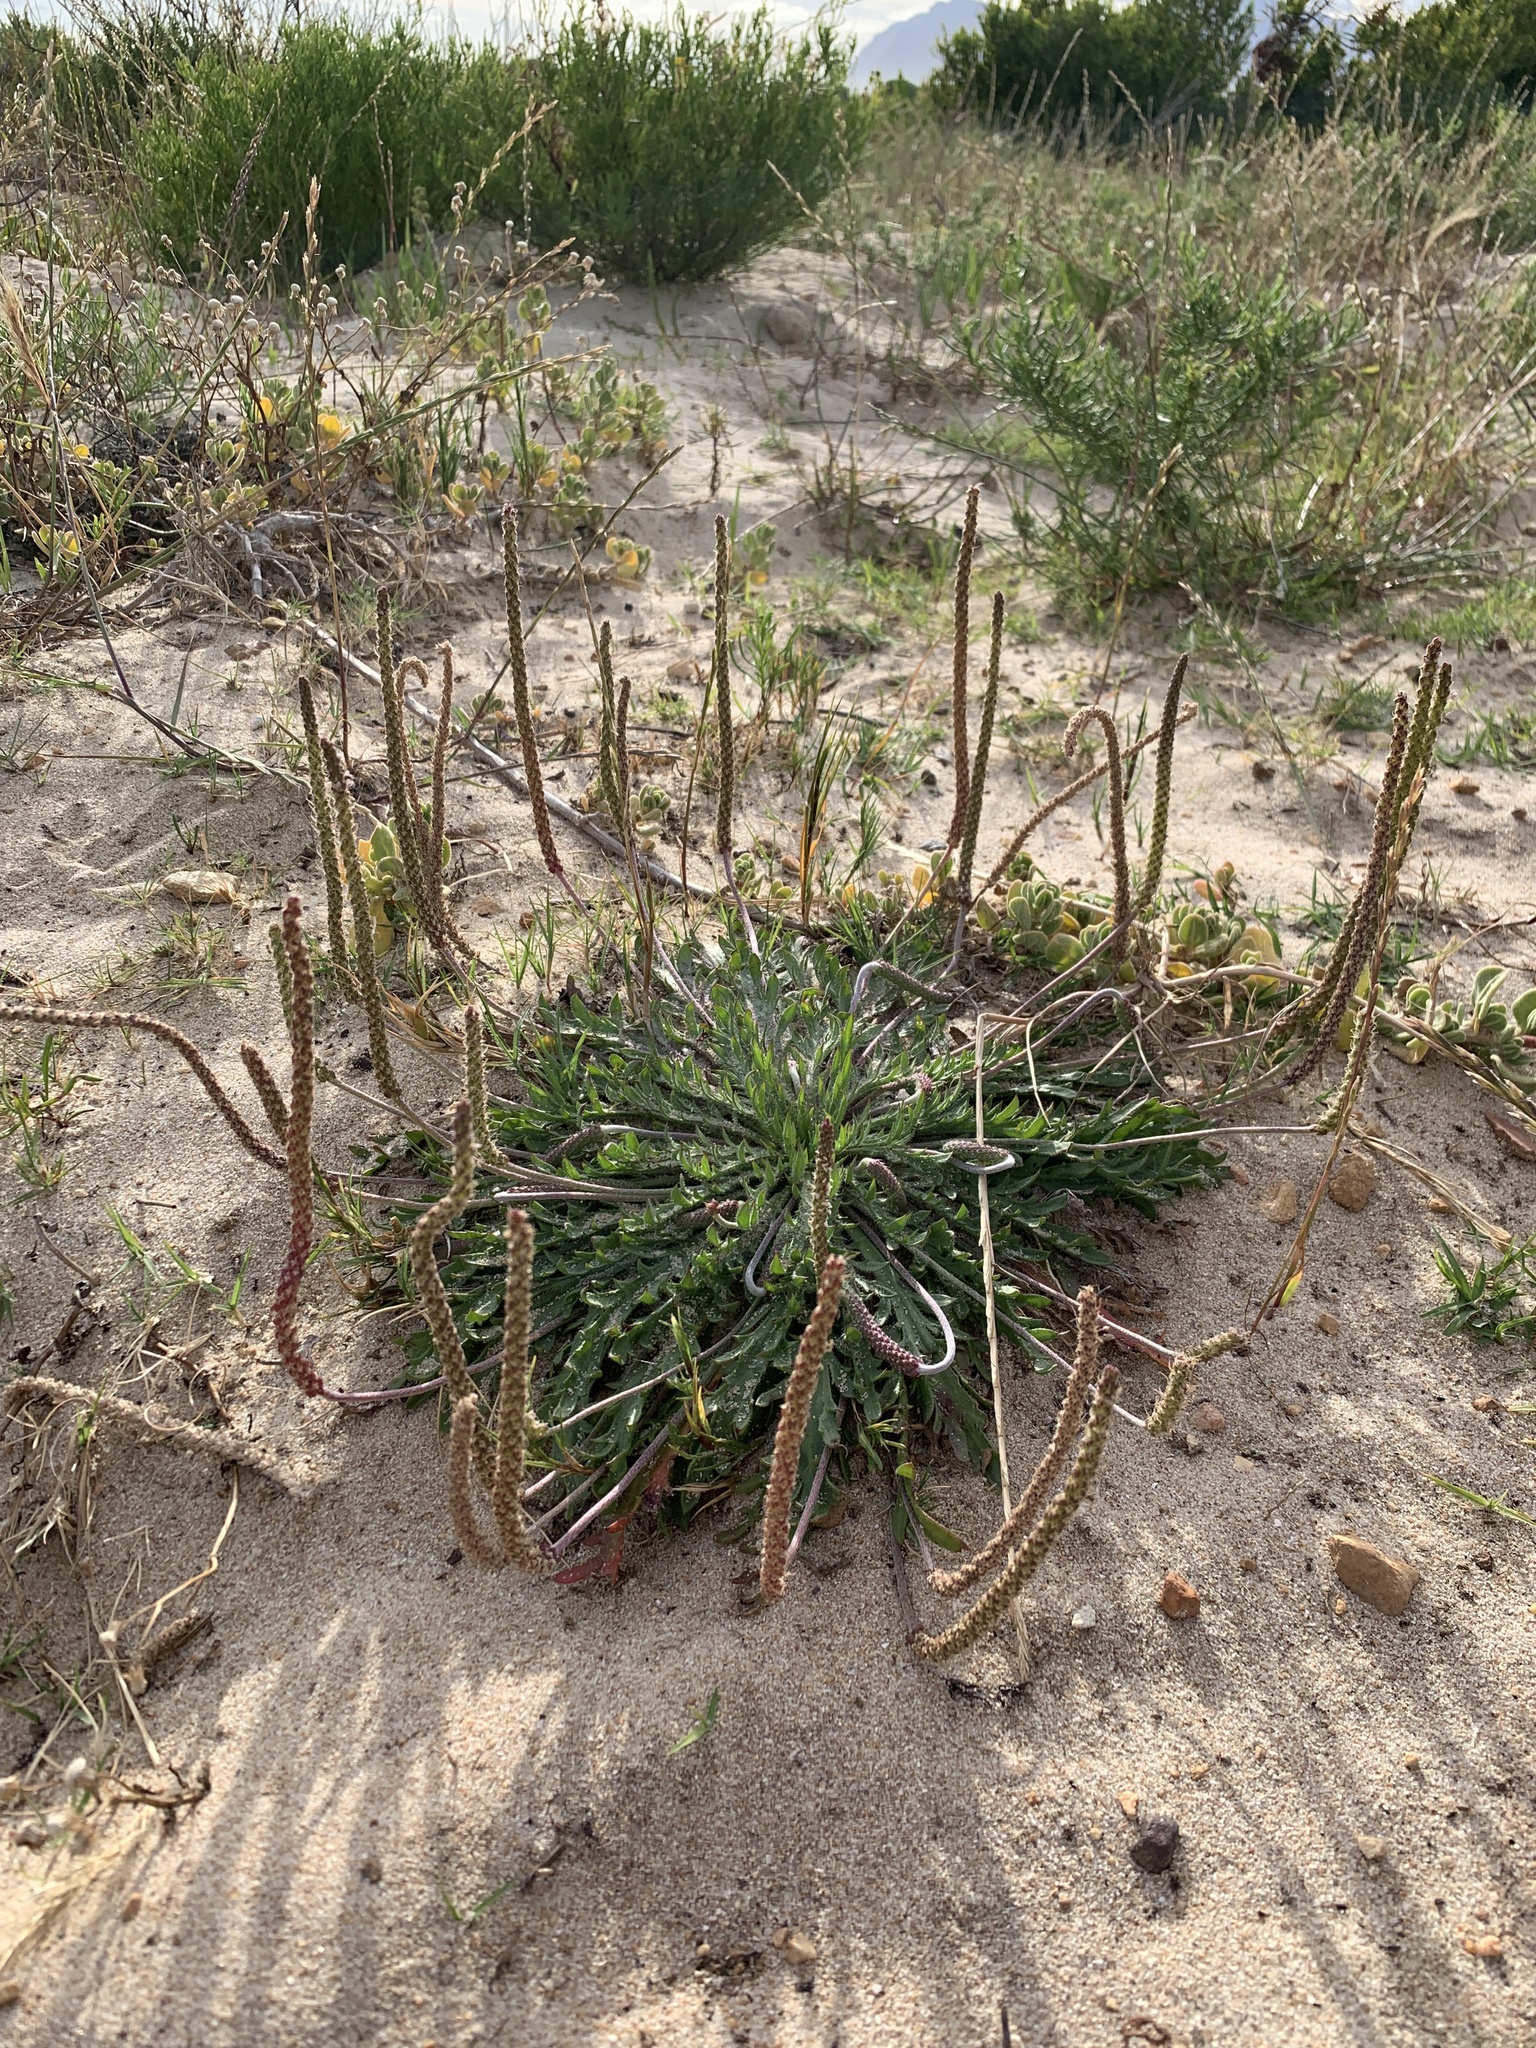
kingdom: Plantae
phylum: Tracheophyta
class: Magnoliopsida
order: Lamiales
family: Plantaginaceae
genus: Plantago
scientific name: Plantago coronopus
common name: Buck's-horn plantain
